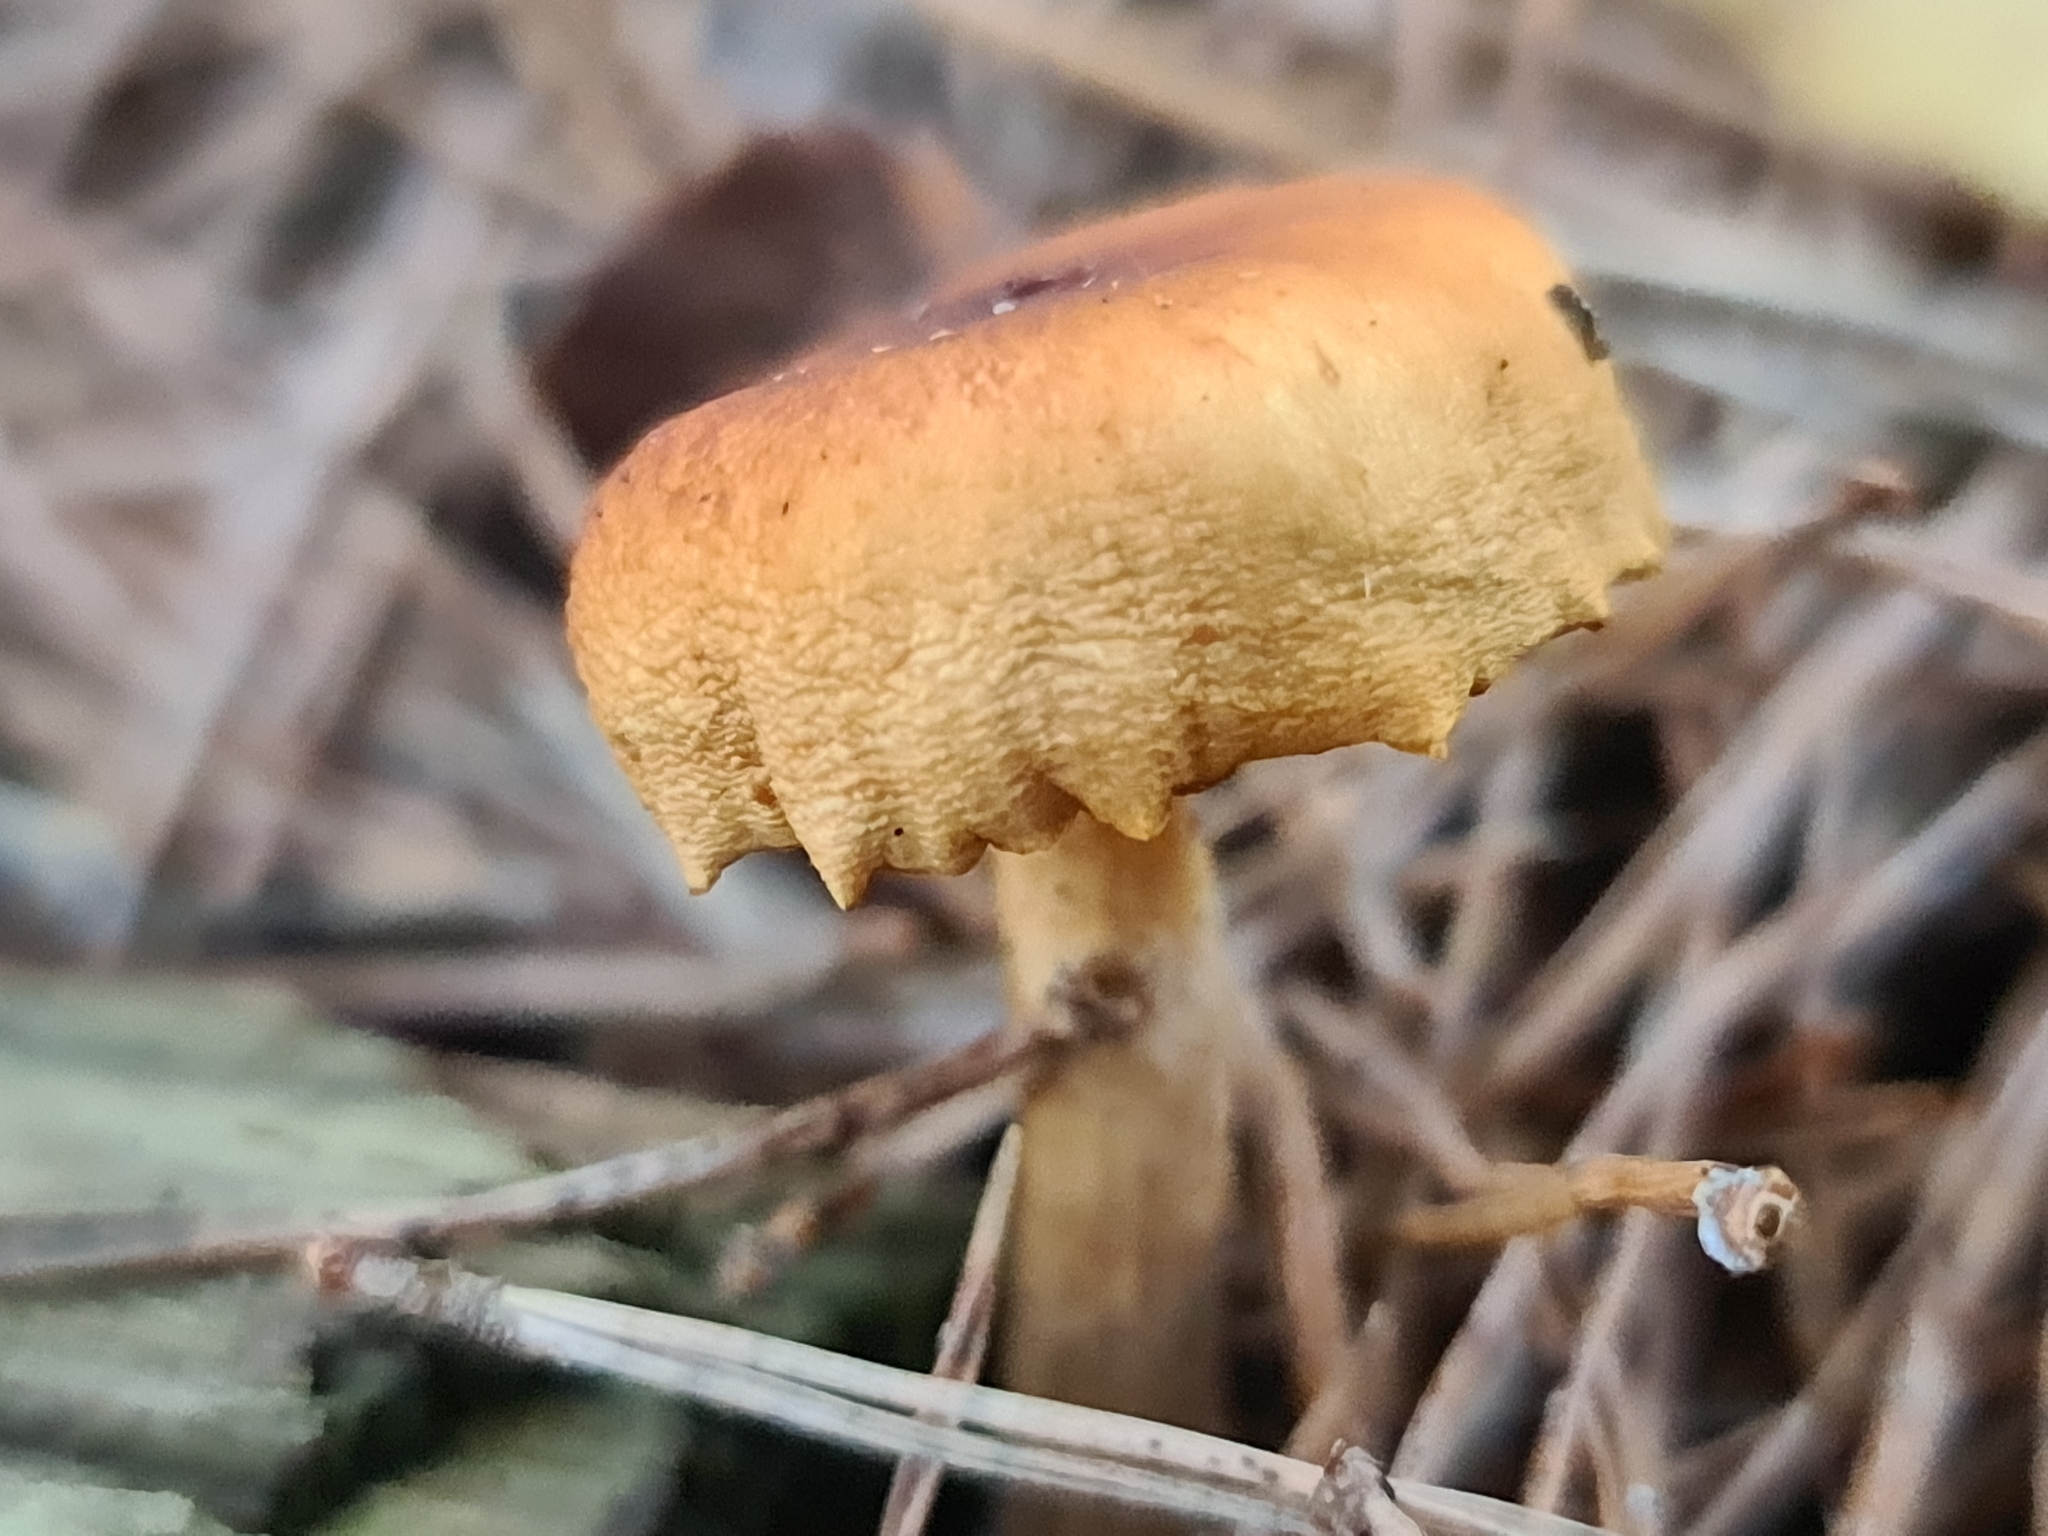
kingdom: Fungi
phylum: Basidiomycota
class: Agaricomycetes
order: Agaricales
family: Hymenogastraceae
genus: Gymnopilus
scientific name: Gymnopilus penetrans
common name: Common rustgill
